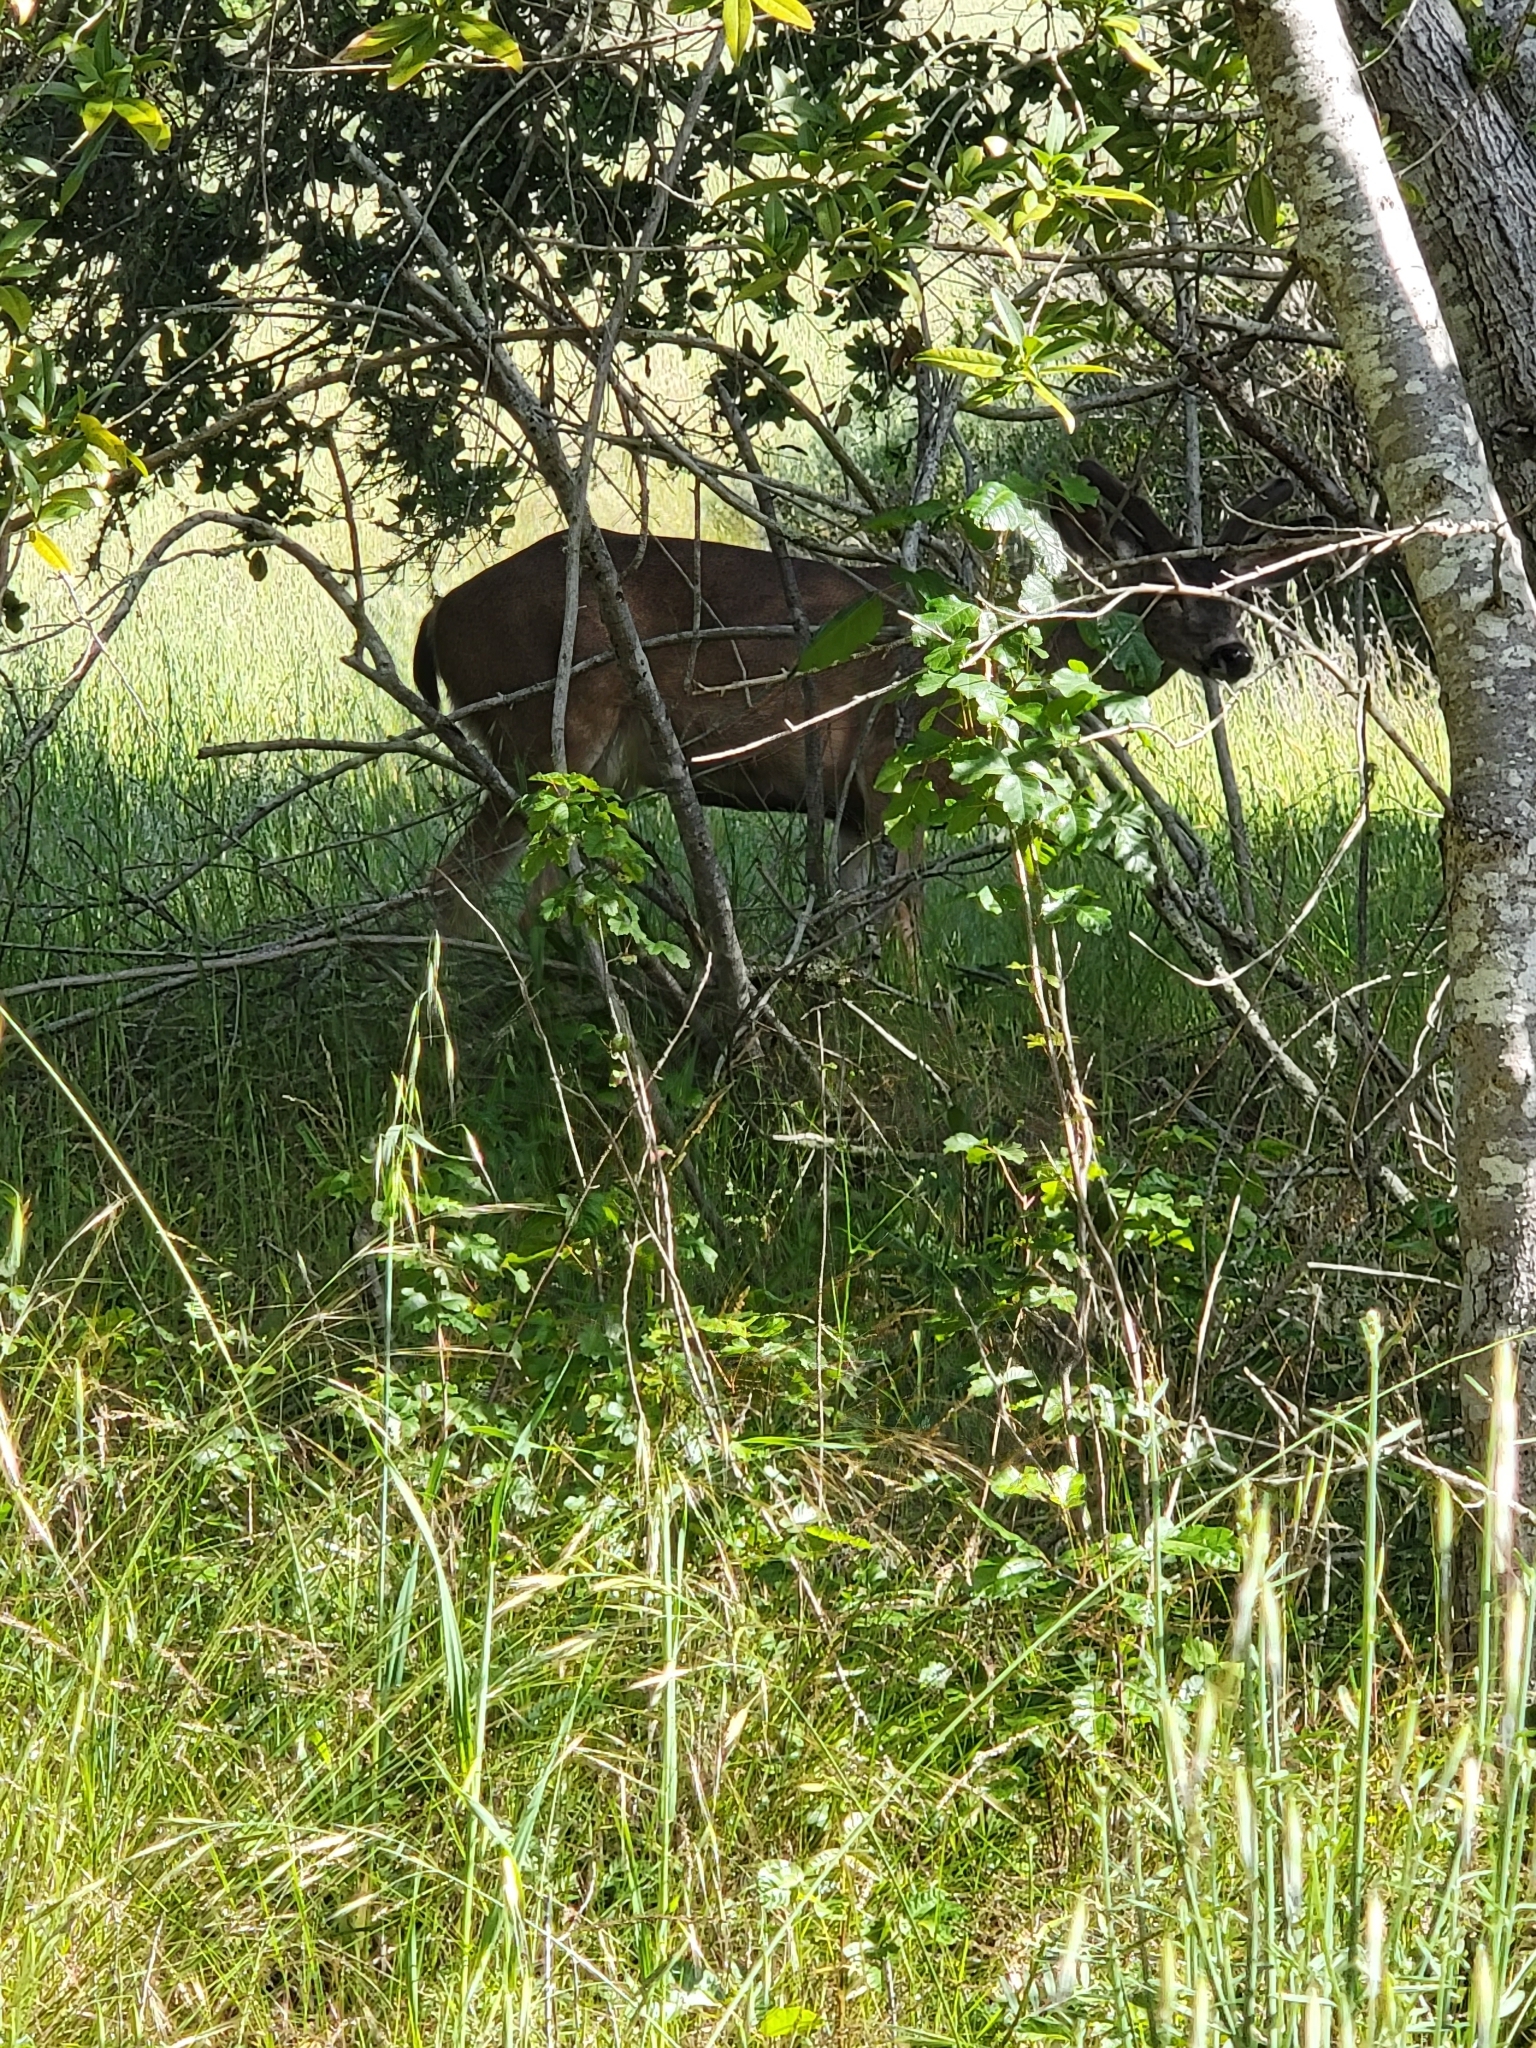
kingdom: Animalia
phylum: Chordata
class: Mammalia
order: Artiodactyla
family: Cervidae
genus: Odocoileus
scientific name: Odocoileus hemionus
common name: Mule deer
